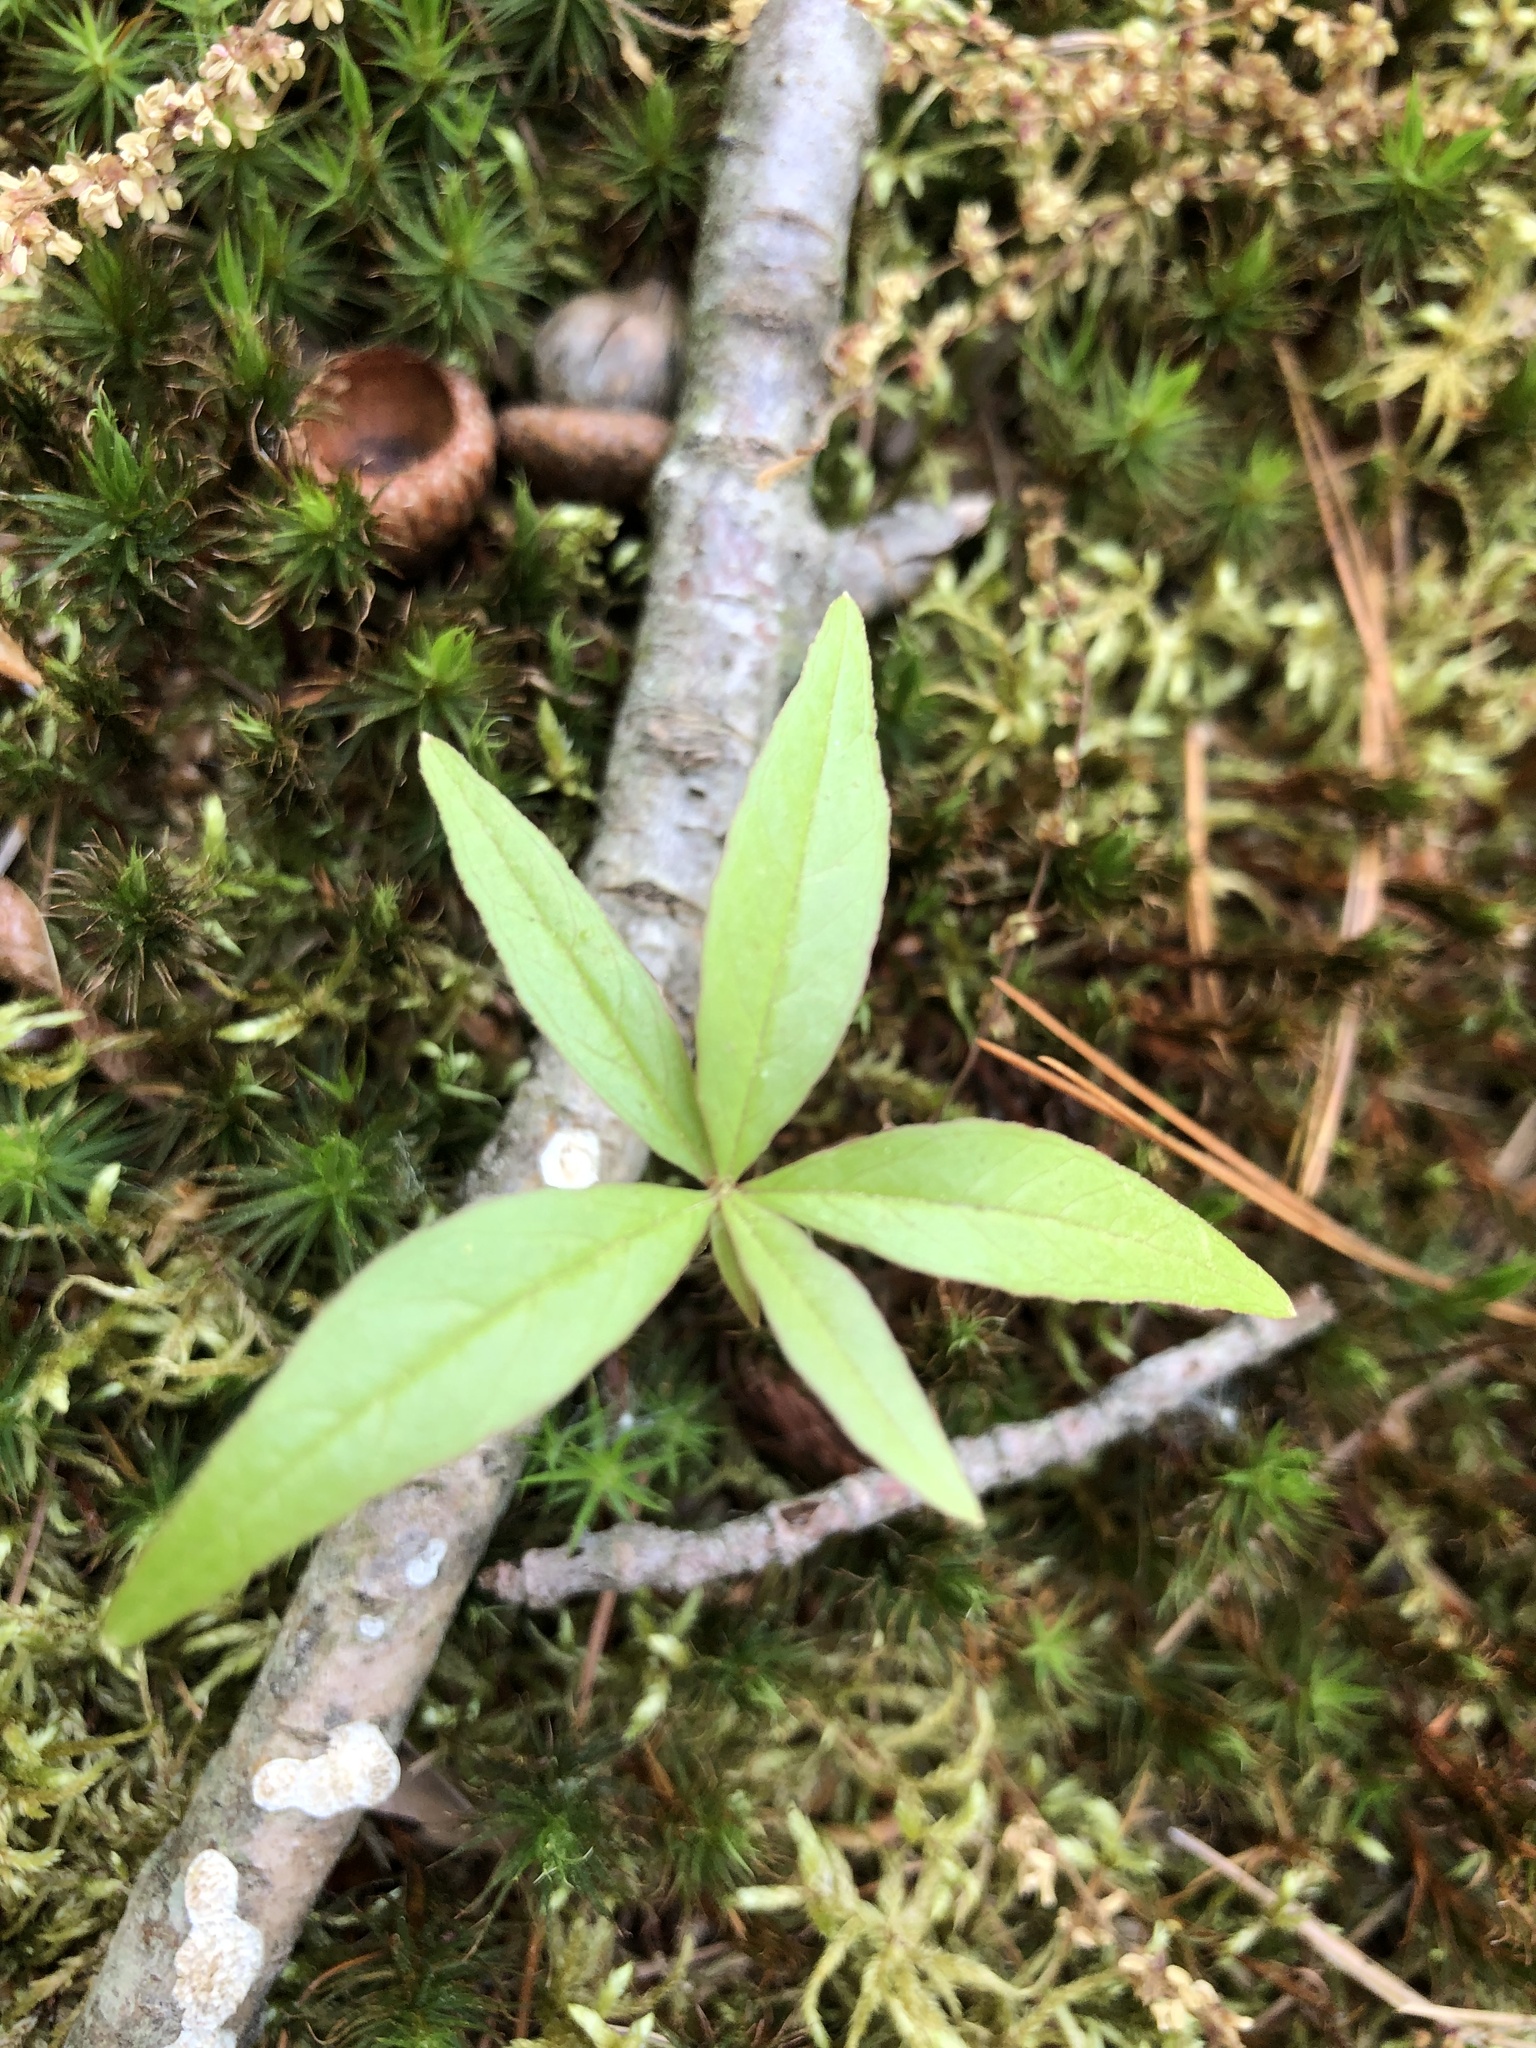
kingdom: Plantae
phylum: Tracheophyta
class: Magnoliopsida
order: Ericales
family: Primulaceae
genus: Lysimachia
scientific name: Lysimachia borealis
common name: American starflower
